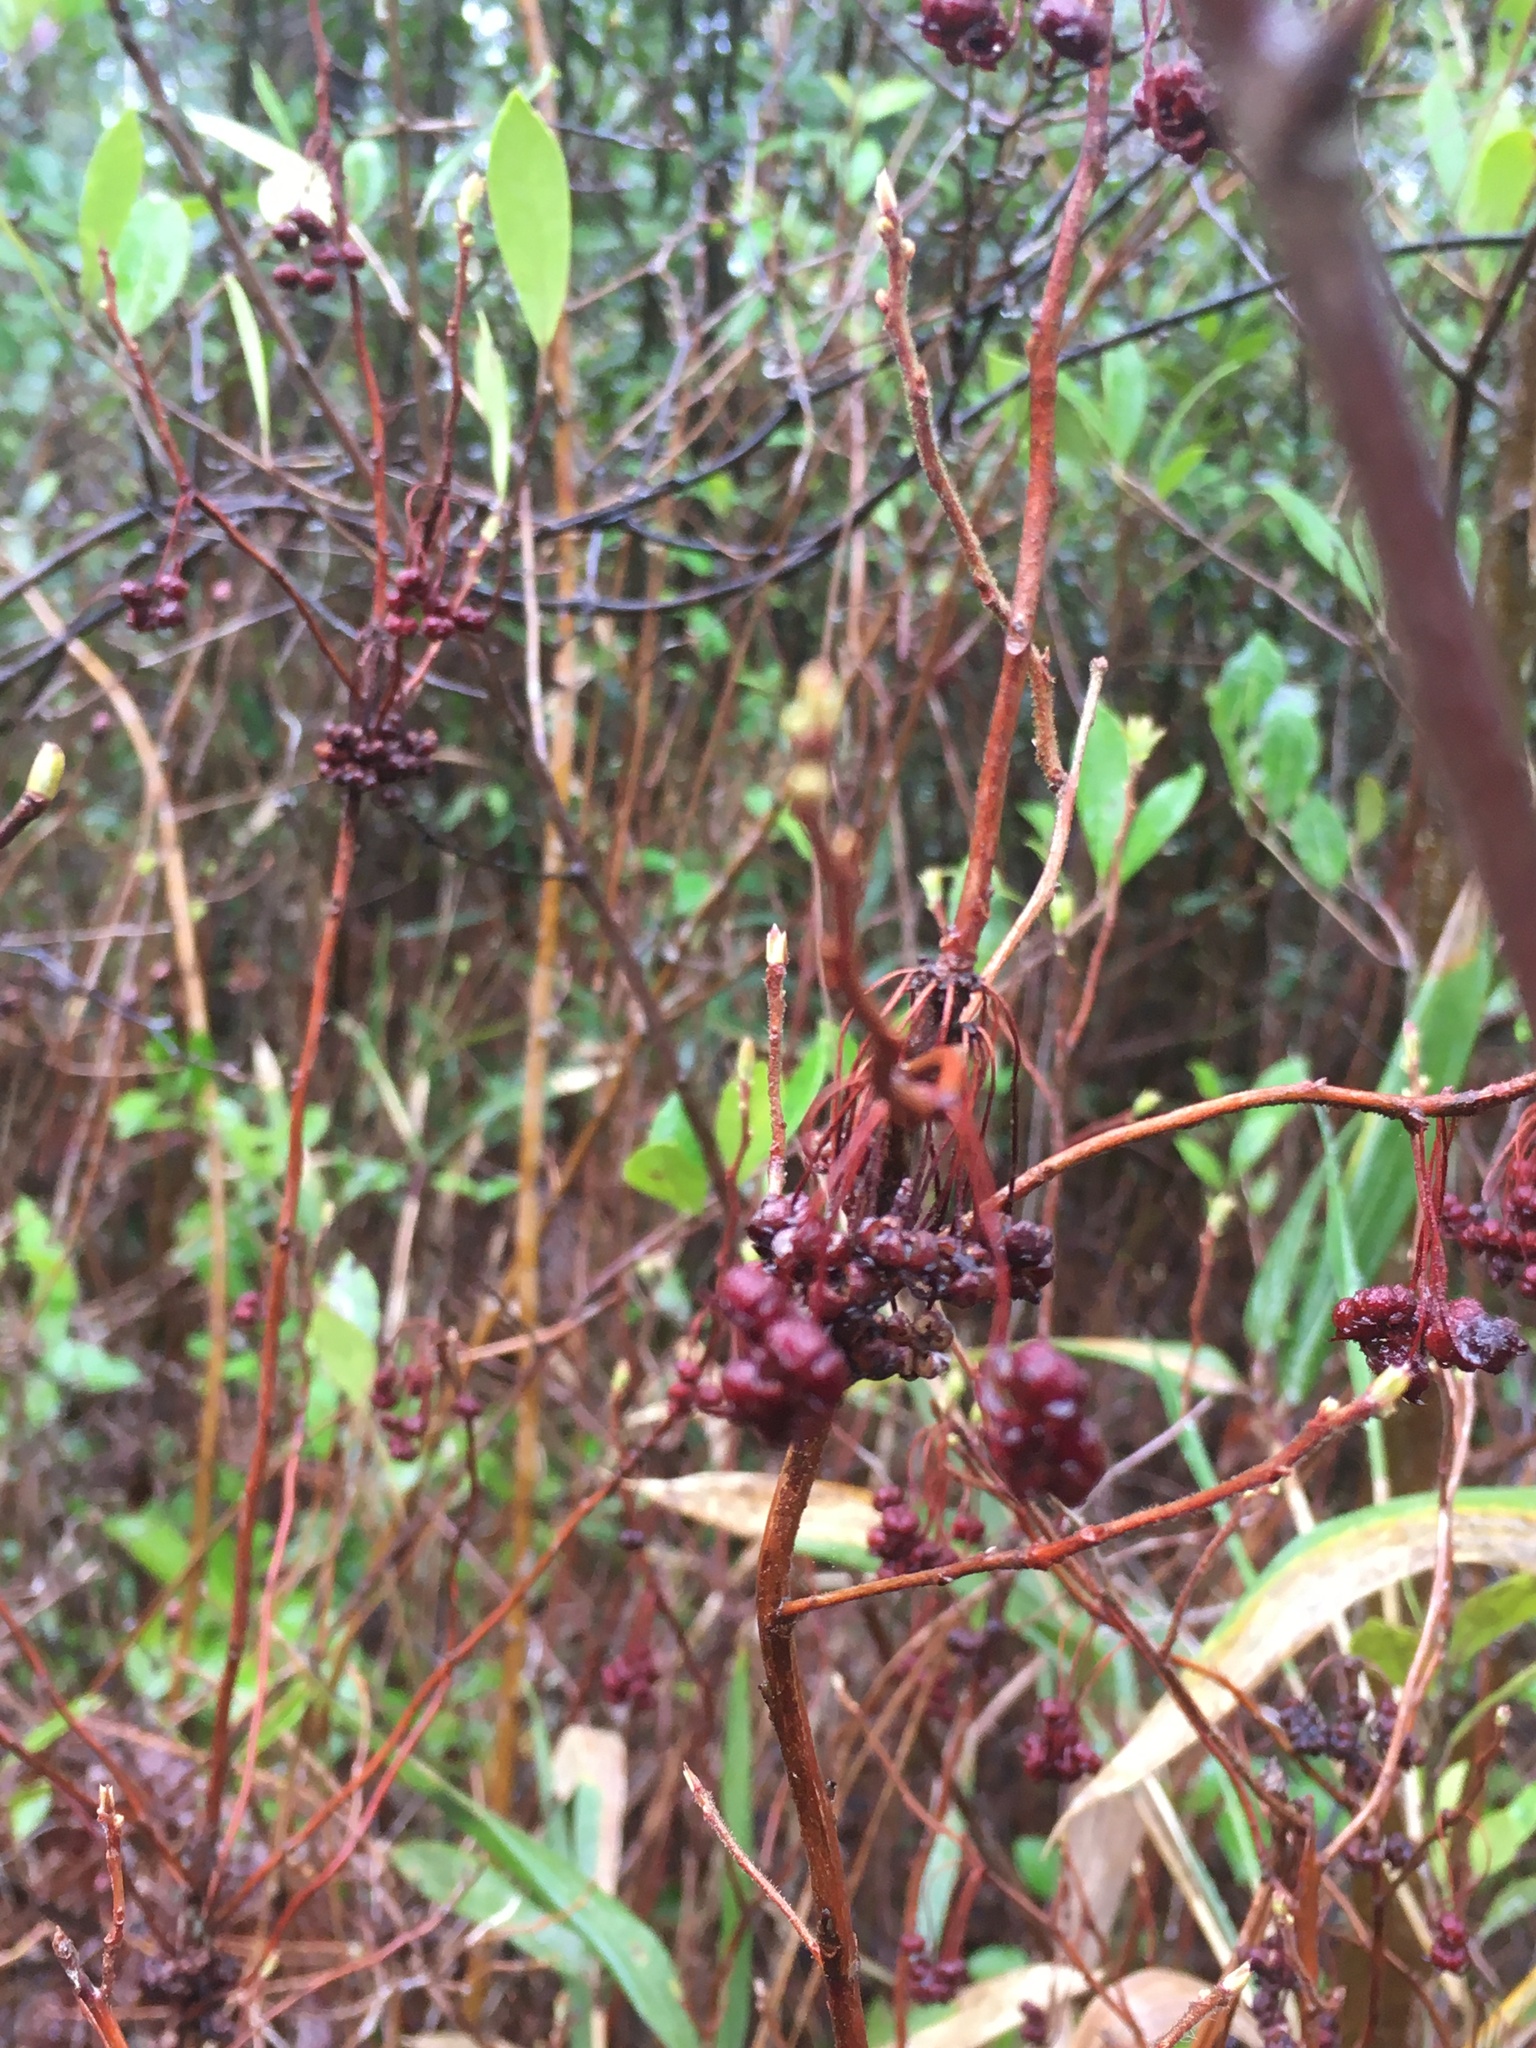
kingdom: Plantae
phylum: Tracheophyta
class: Magnoliopsida
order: Ericales
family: Ericaceae
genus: Kalmia
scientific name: Kalmia cuneata
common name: White wicky
